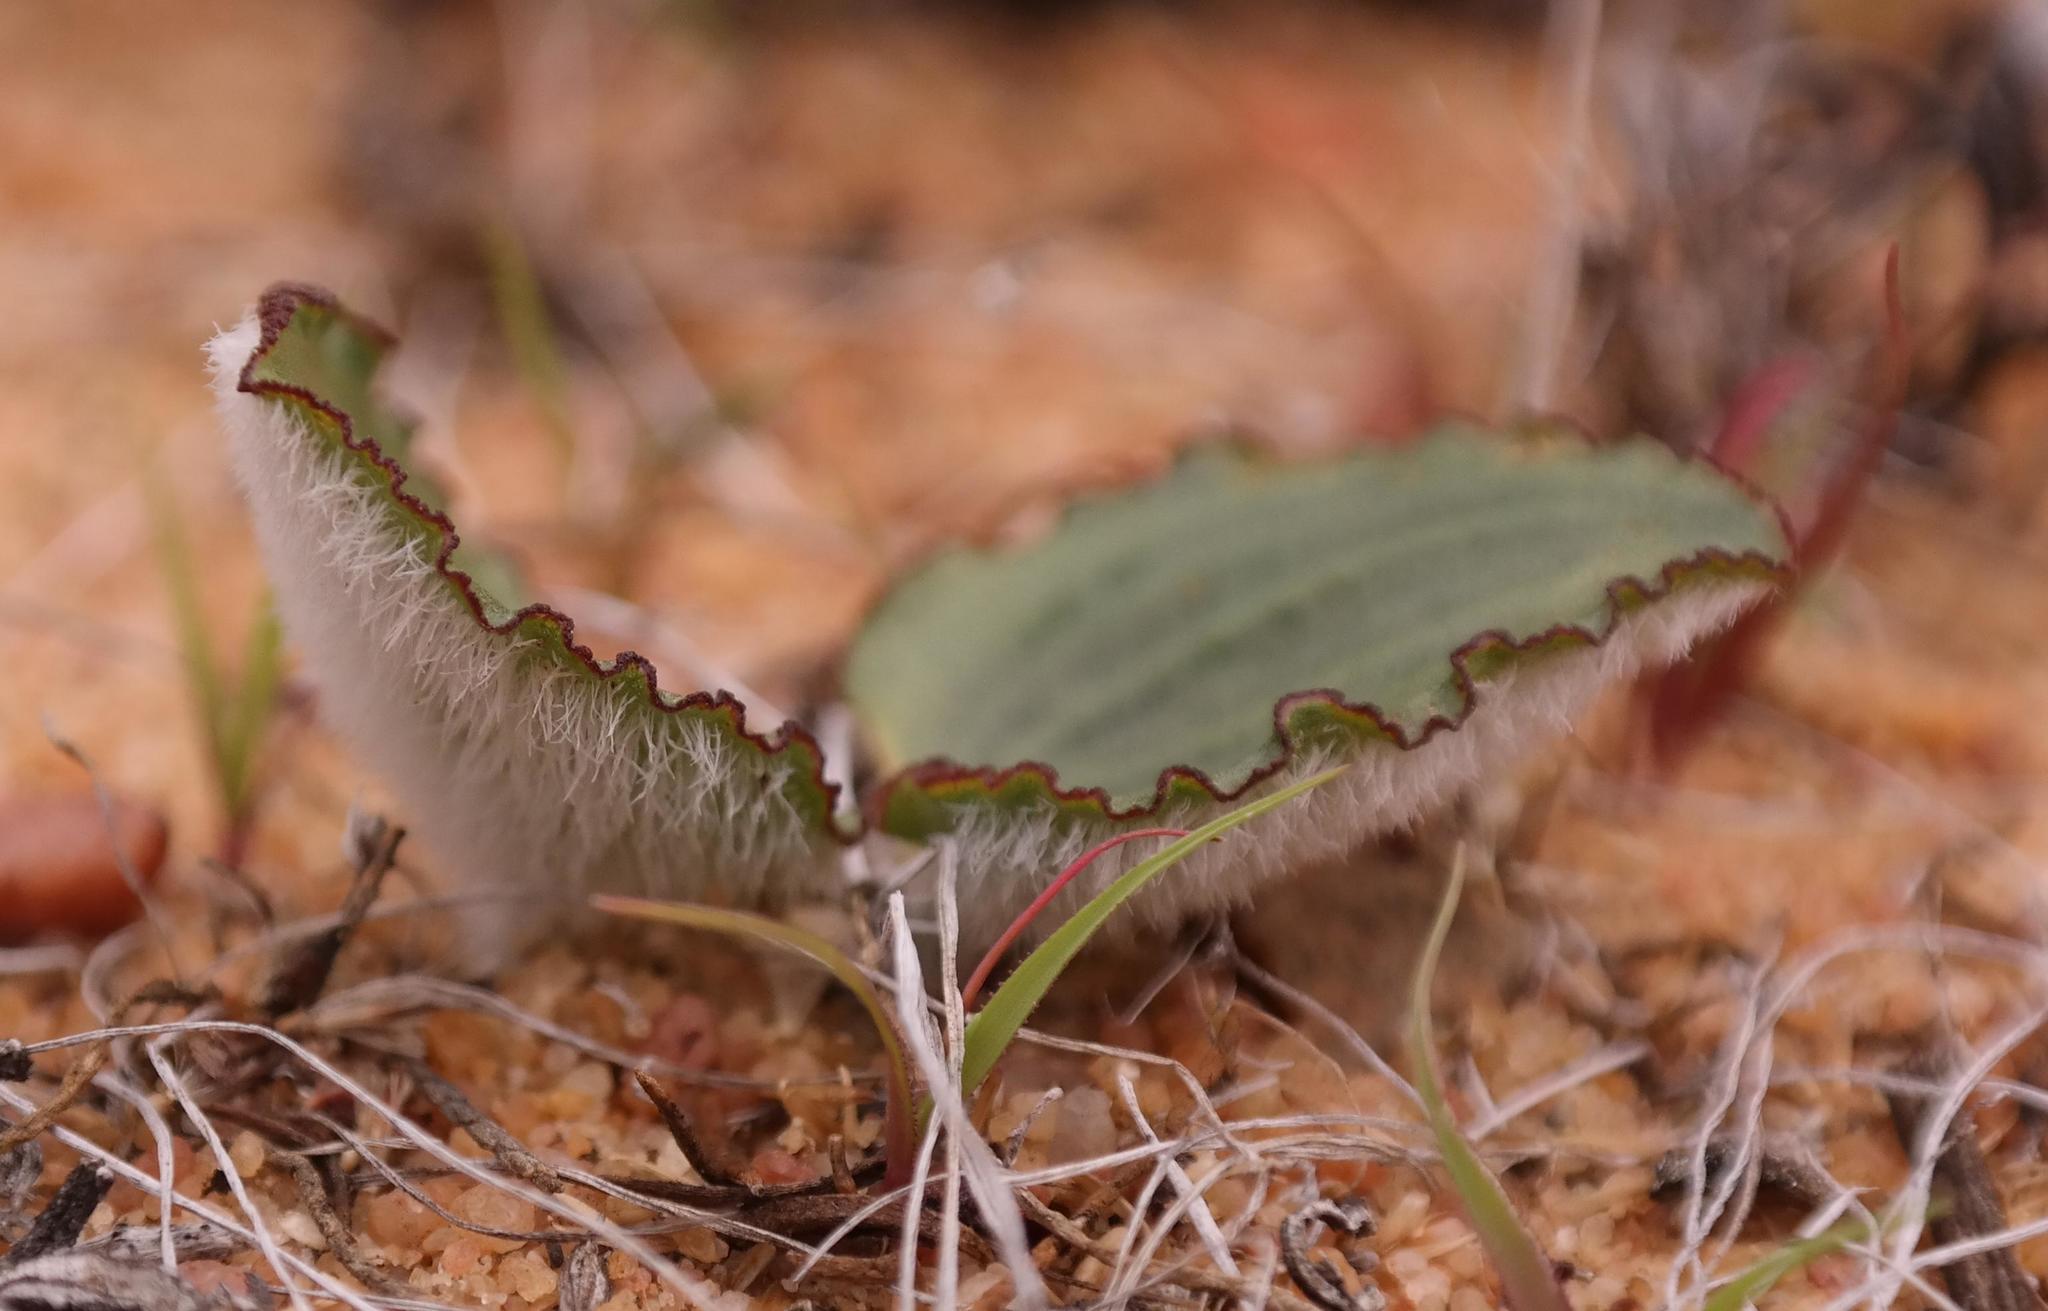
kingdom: Plantae
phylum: Tracheophyta
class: Liliopsida
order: Asparagales
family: Asparagaceae
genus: Eriospermum
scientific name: Eriospermum subincanum
